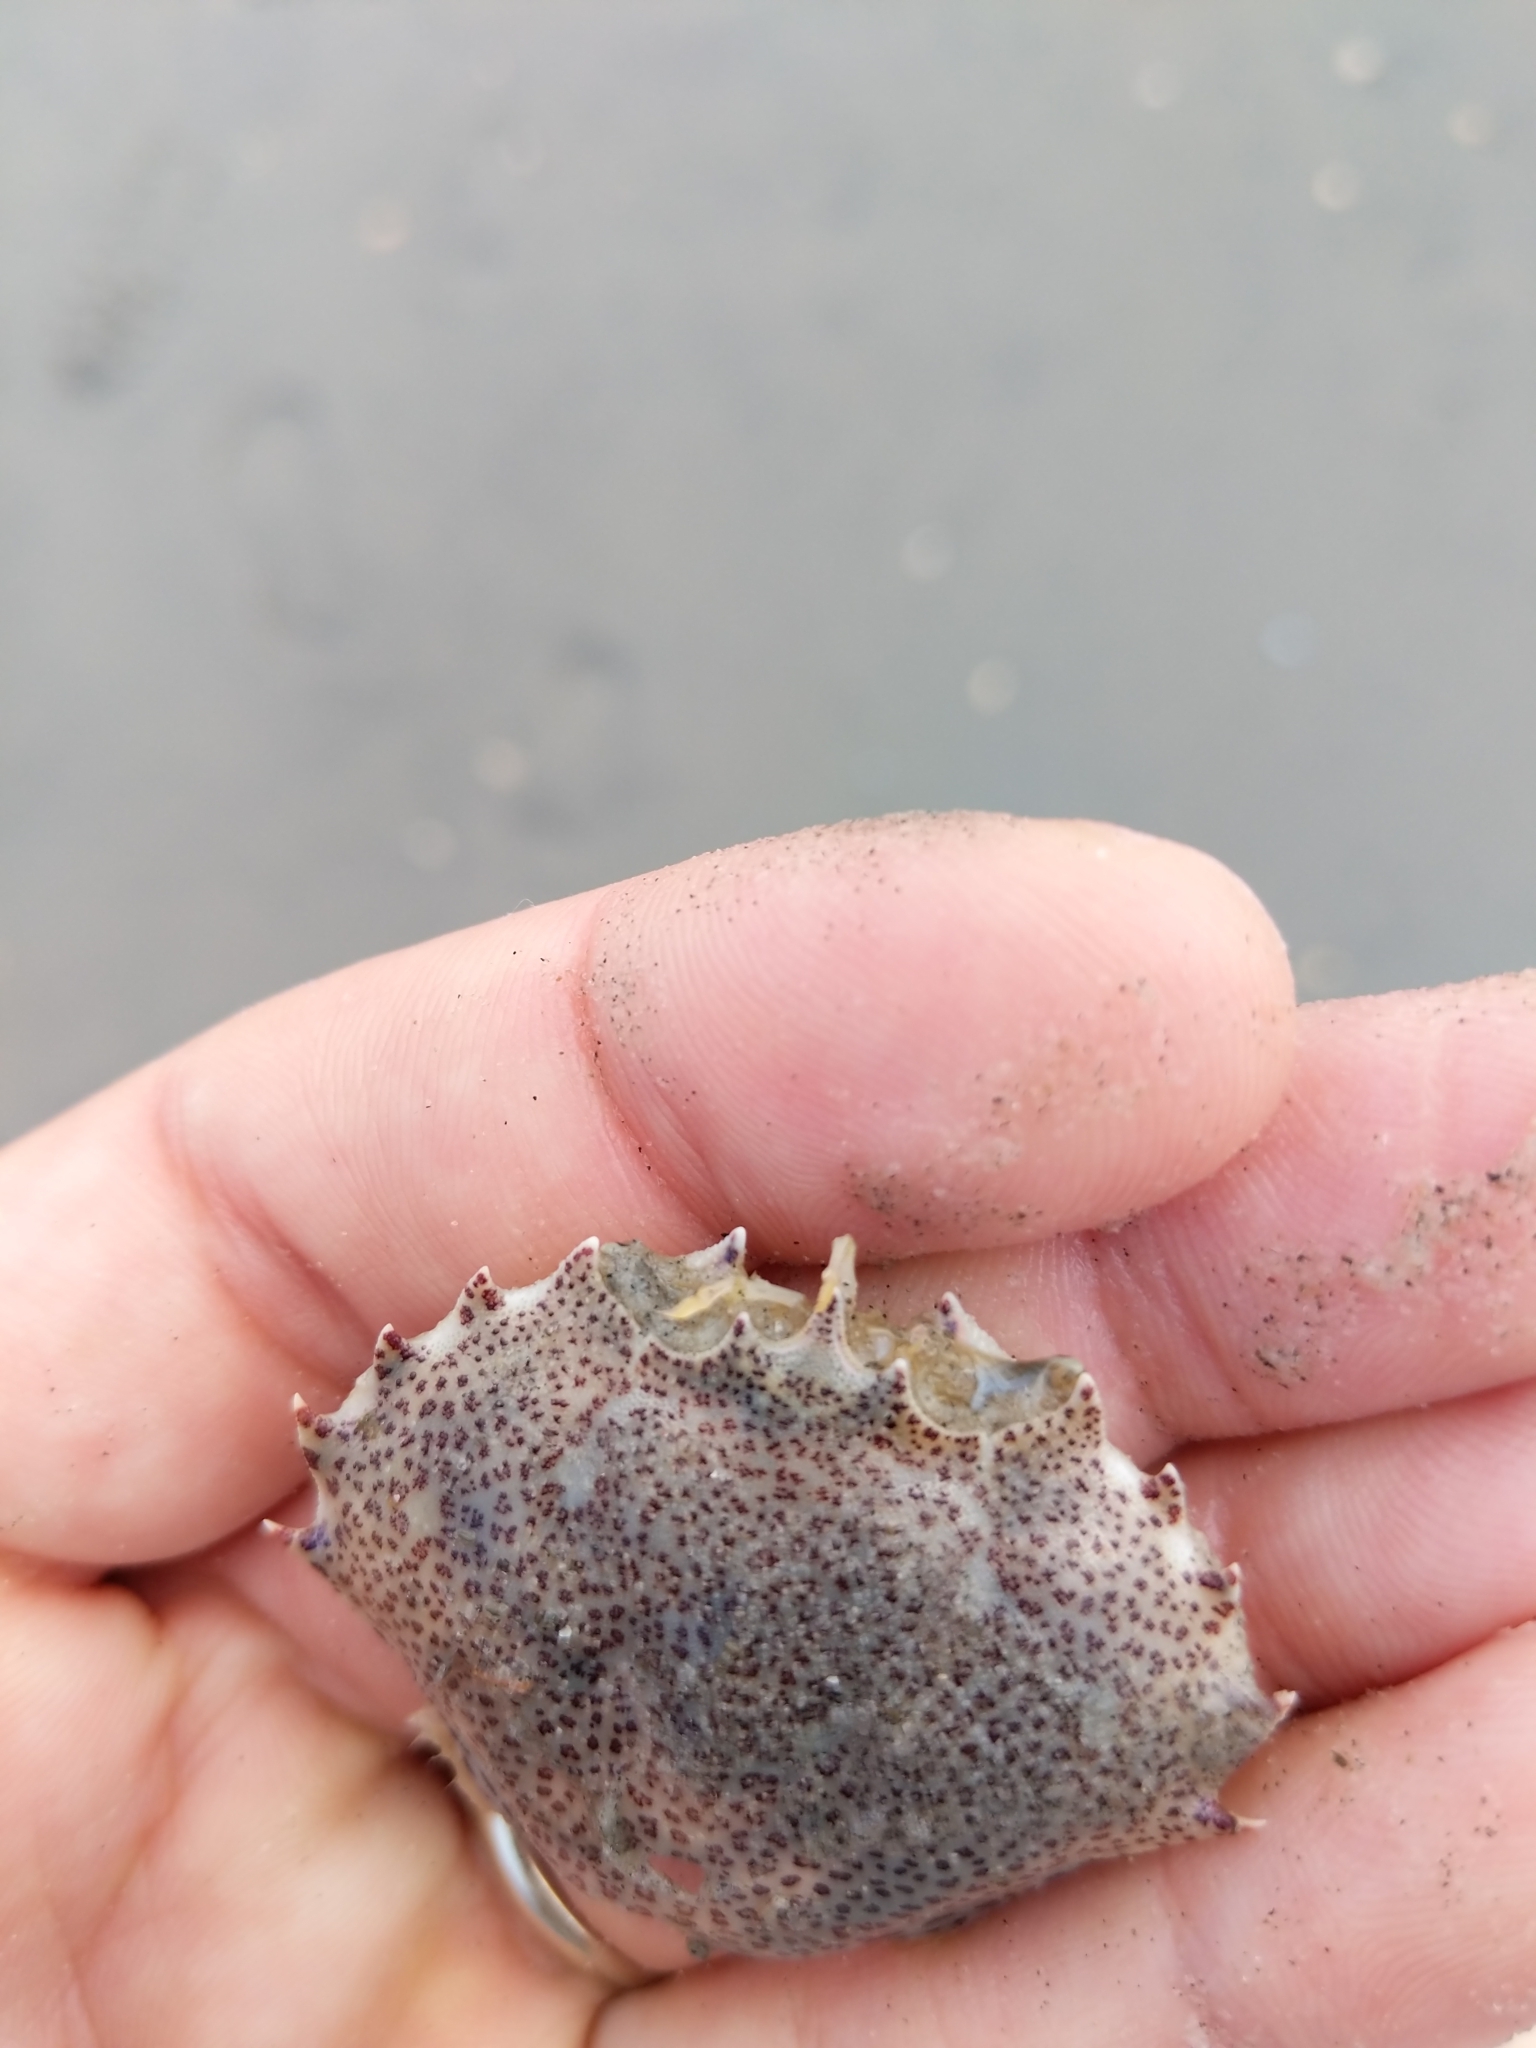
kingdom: Animalia
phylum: Arthropoda
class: Malacostraca
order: Decapoda
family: Ovalipidae
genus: Ovalipes
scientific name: Ovalipes ocellatus
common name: Lady crab
